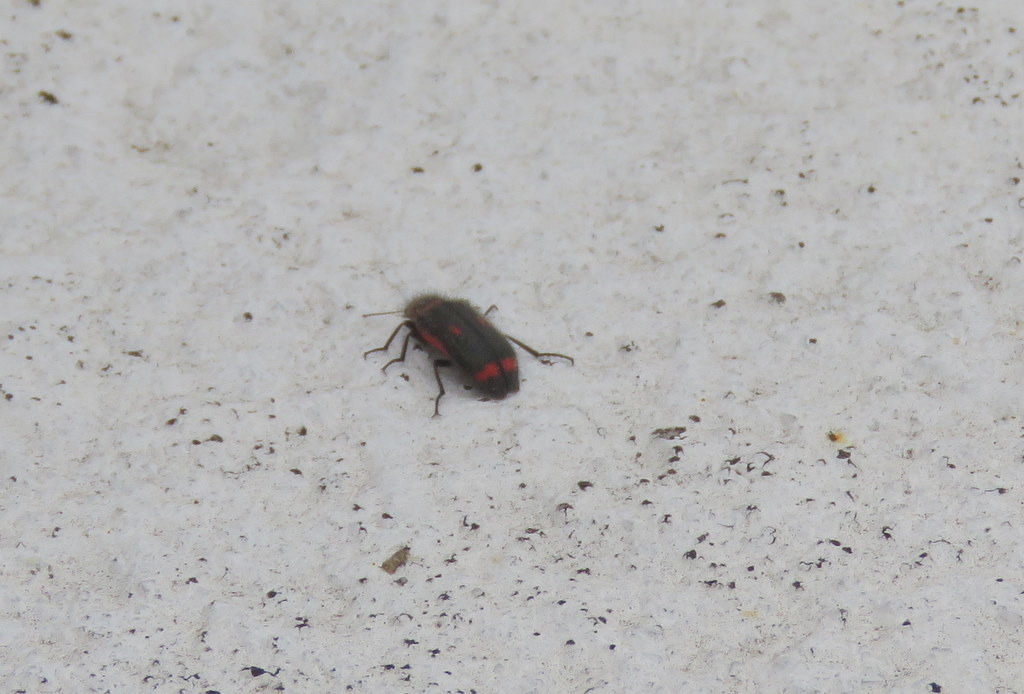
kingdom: Animalia
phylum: Arthropoda
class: Insecta
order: Coleoptera
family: Melyridae
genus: Astylus
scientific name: Astylus
